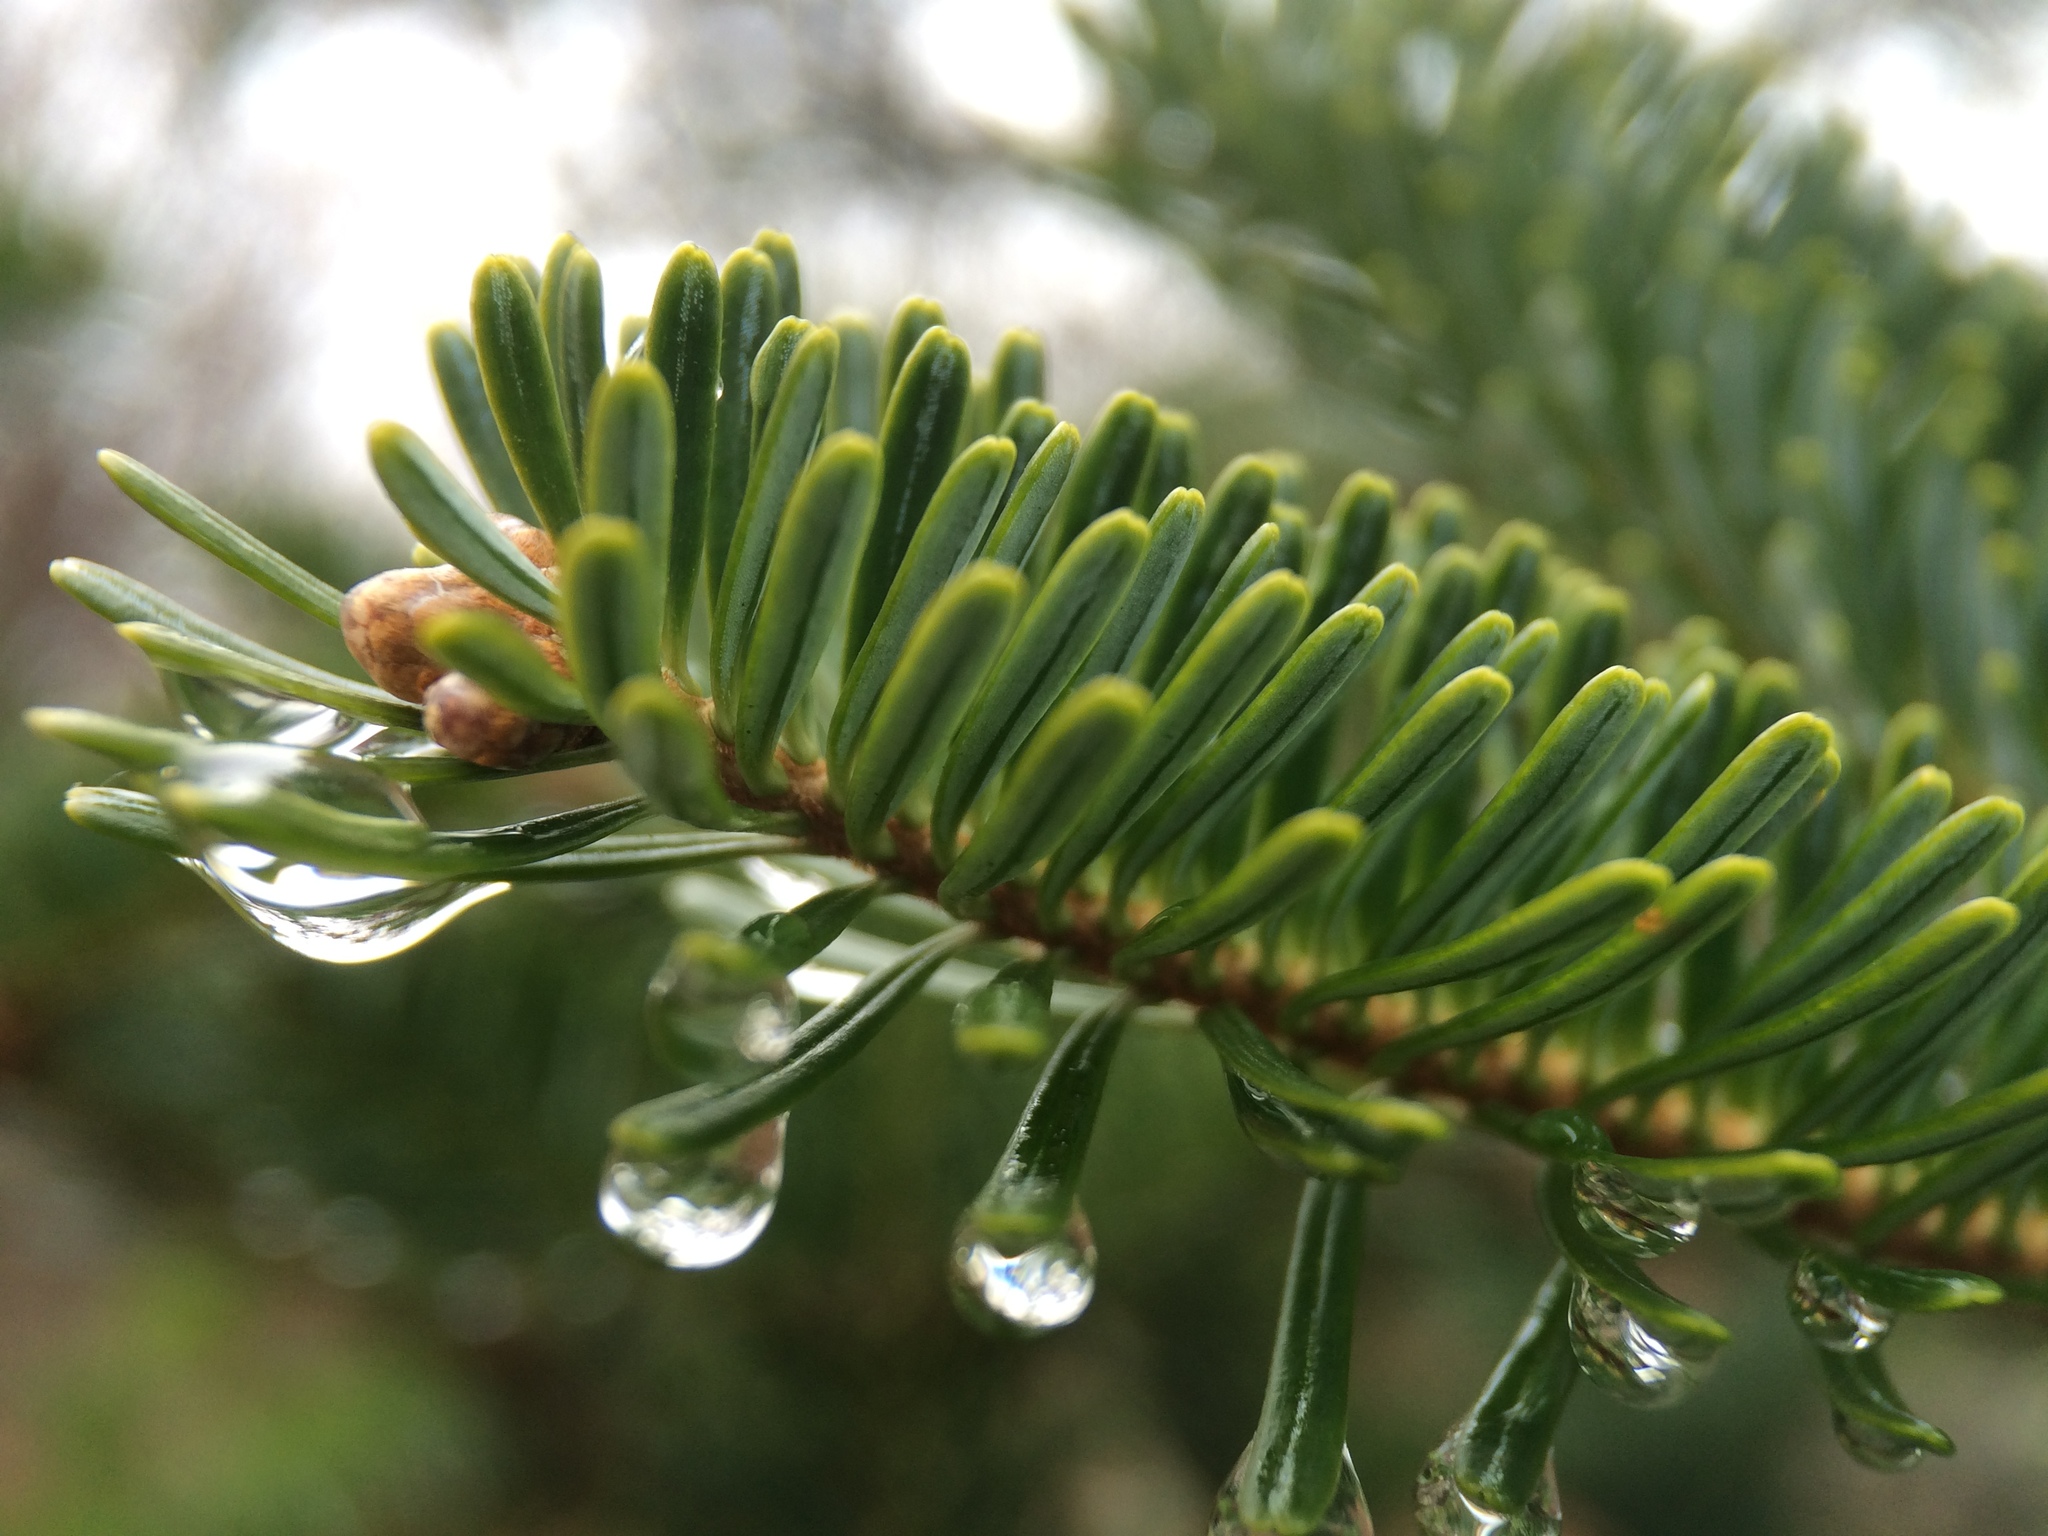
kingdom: Plantae
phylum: Tracheophyta
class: Pinopsida
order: Pinales
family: Pinaceae
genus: Abies
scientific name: Abies fraseri
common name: Fraser fir
